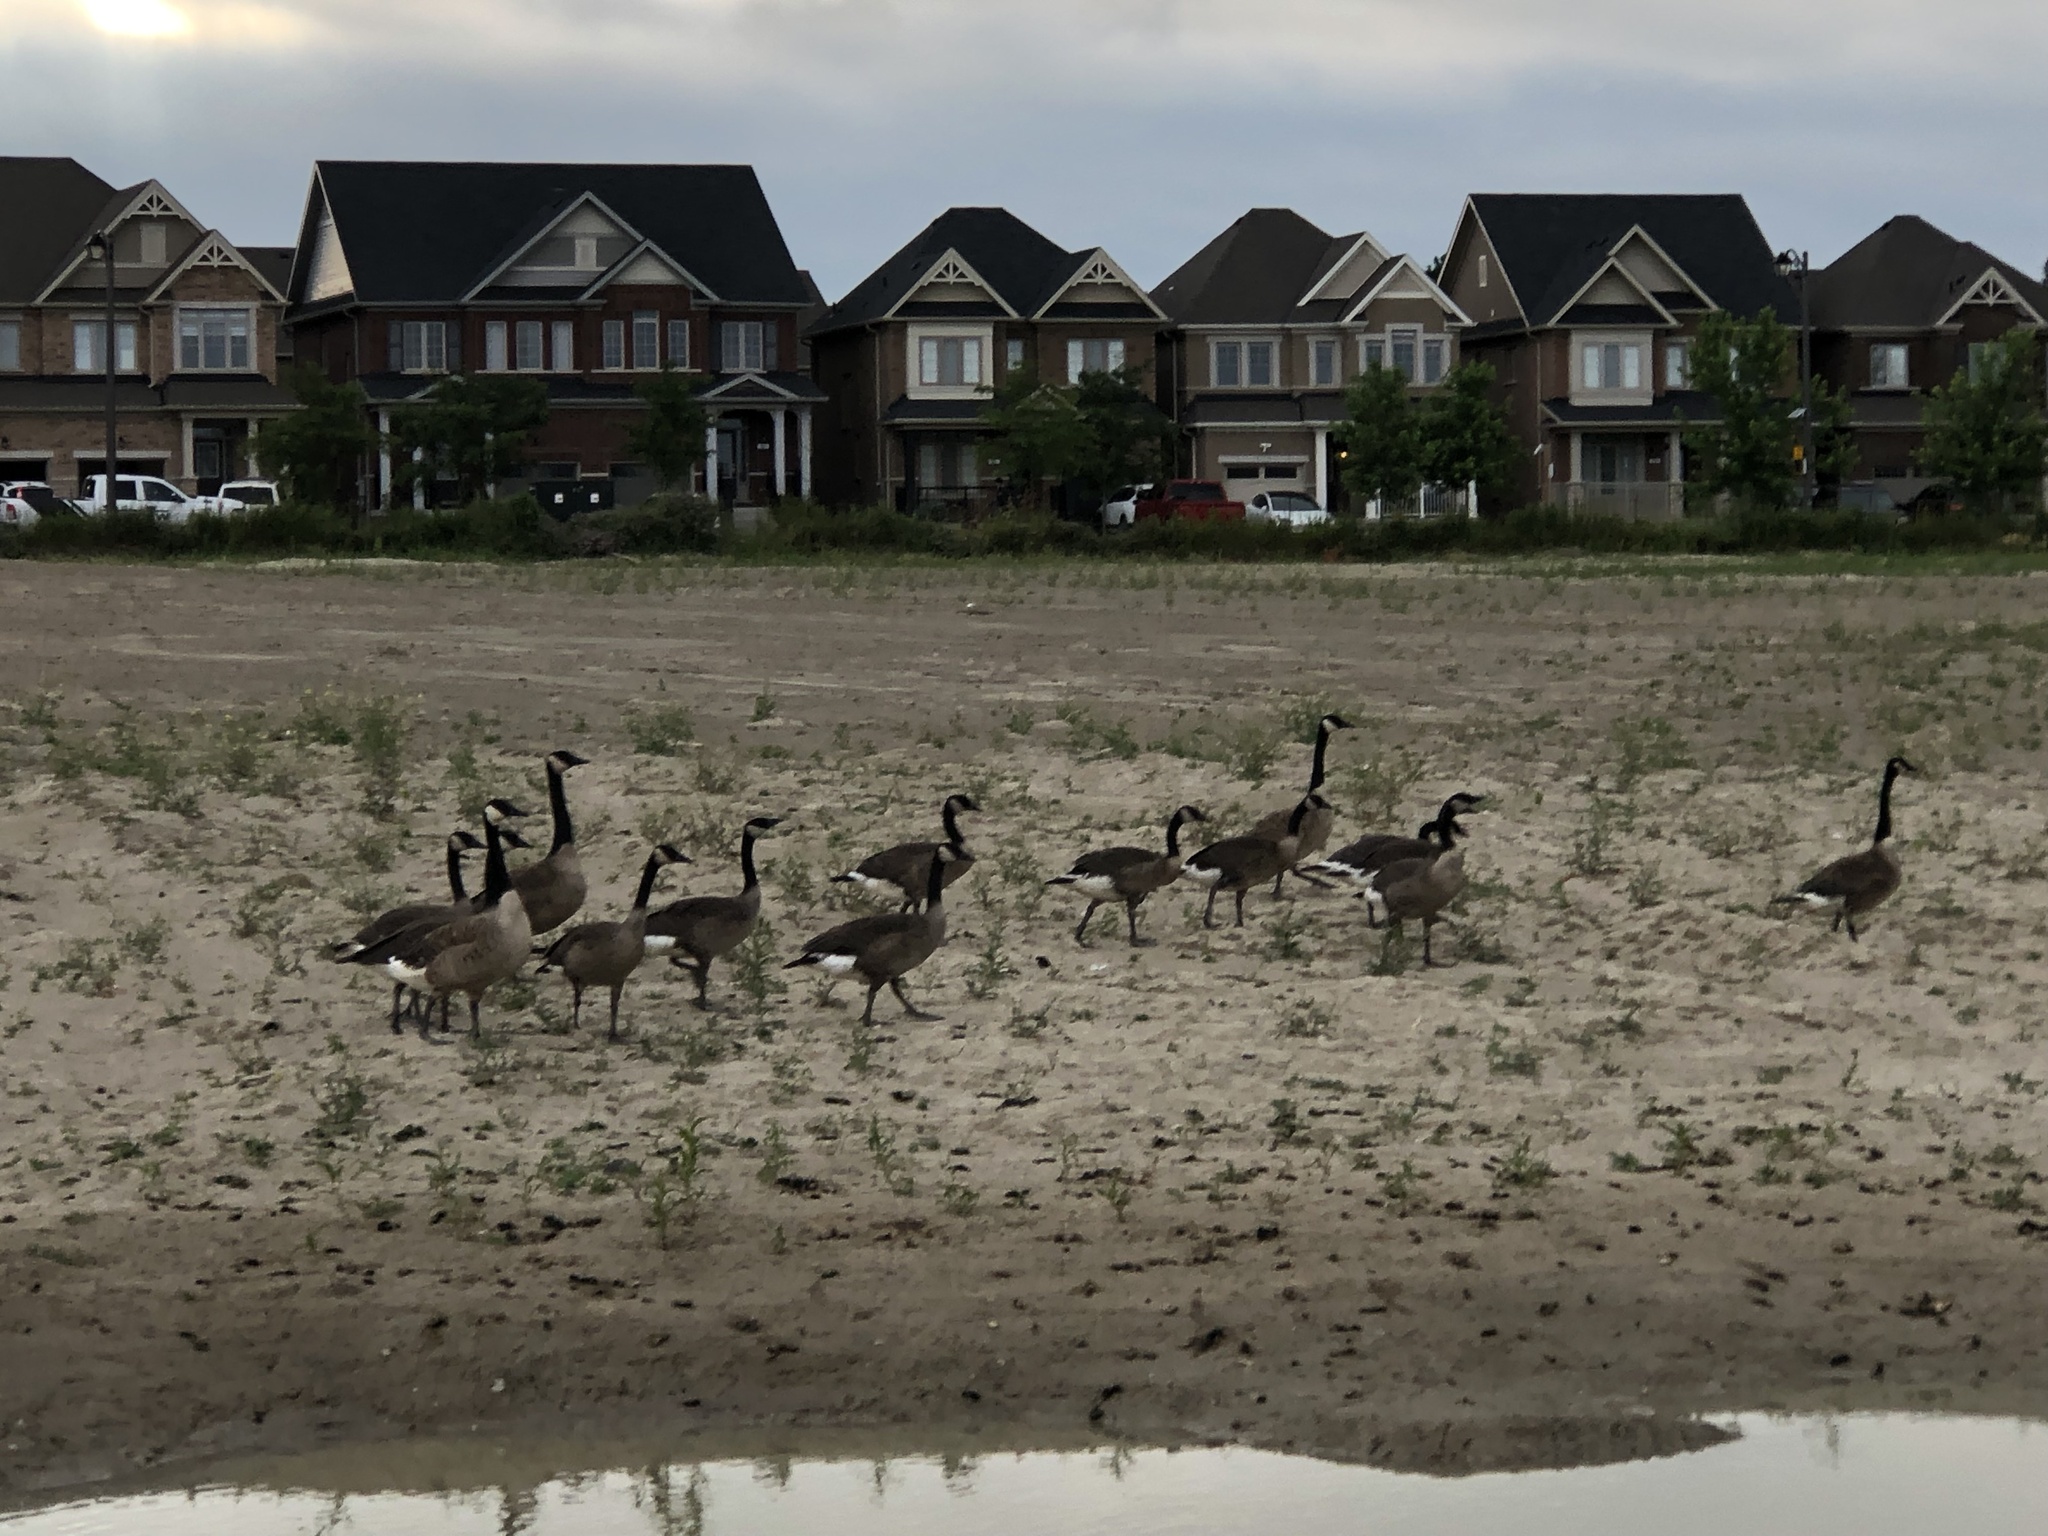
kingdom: Animalia
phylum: Chordata
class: Aves
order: Anseriformes
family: Anatidae
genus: Branta
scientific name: Branta canadensis
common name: Canada goose
